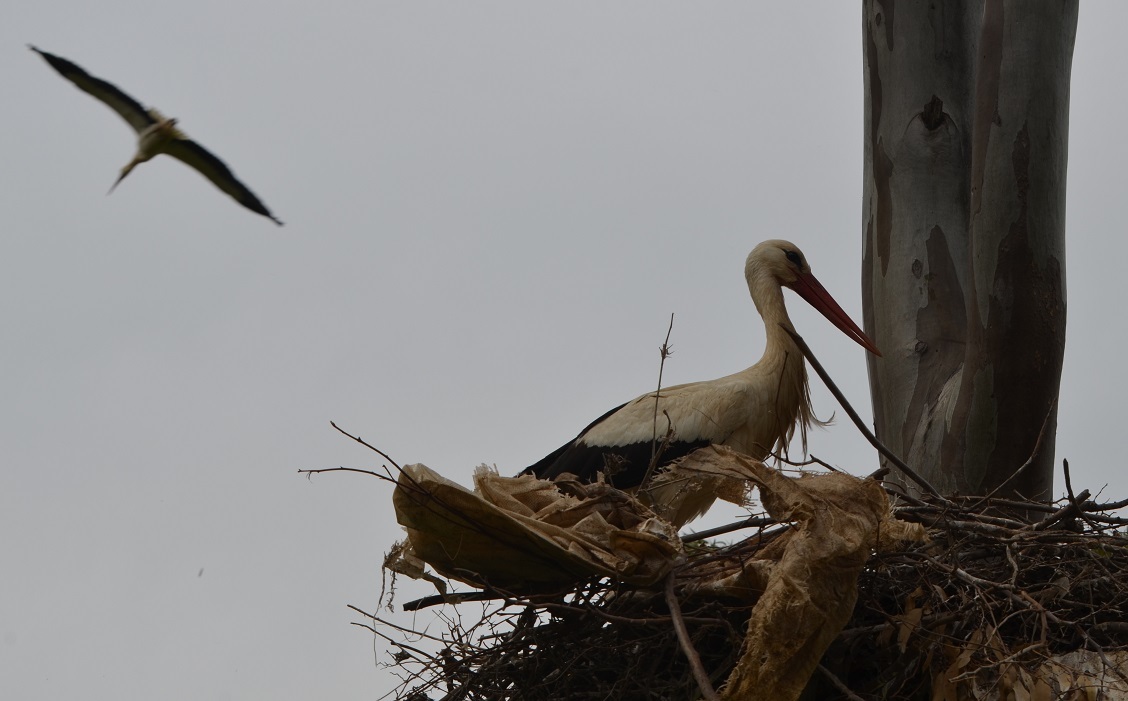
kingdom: Animalia
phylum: Chordata
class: Aves
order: Ciconiiformes
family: Ciconiidae
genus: Ciconia
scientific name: Ciconia ciconia
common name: White stork
